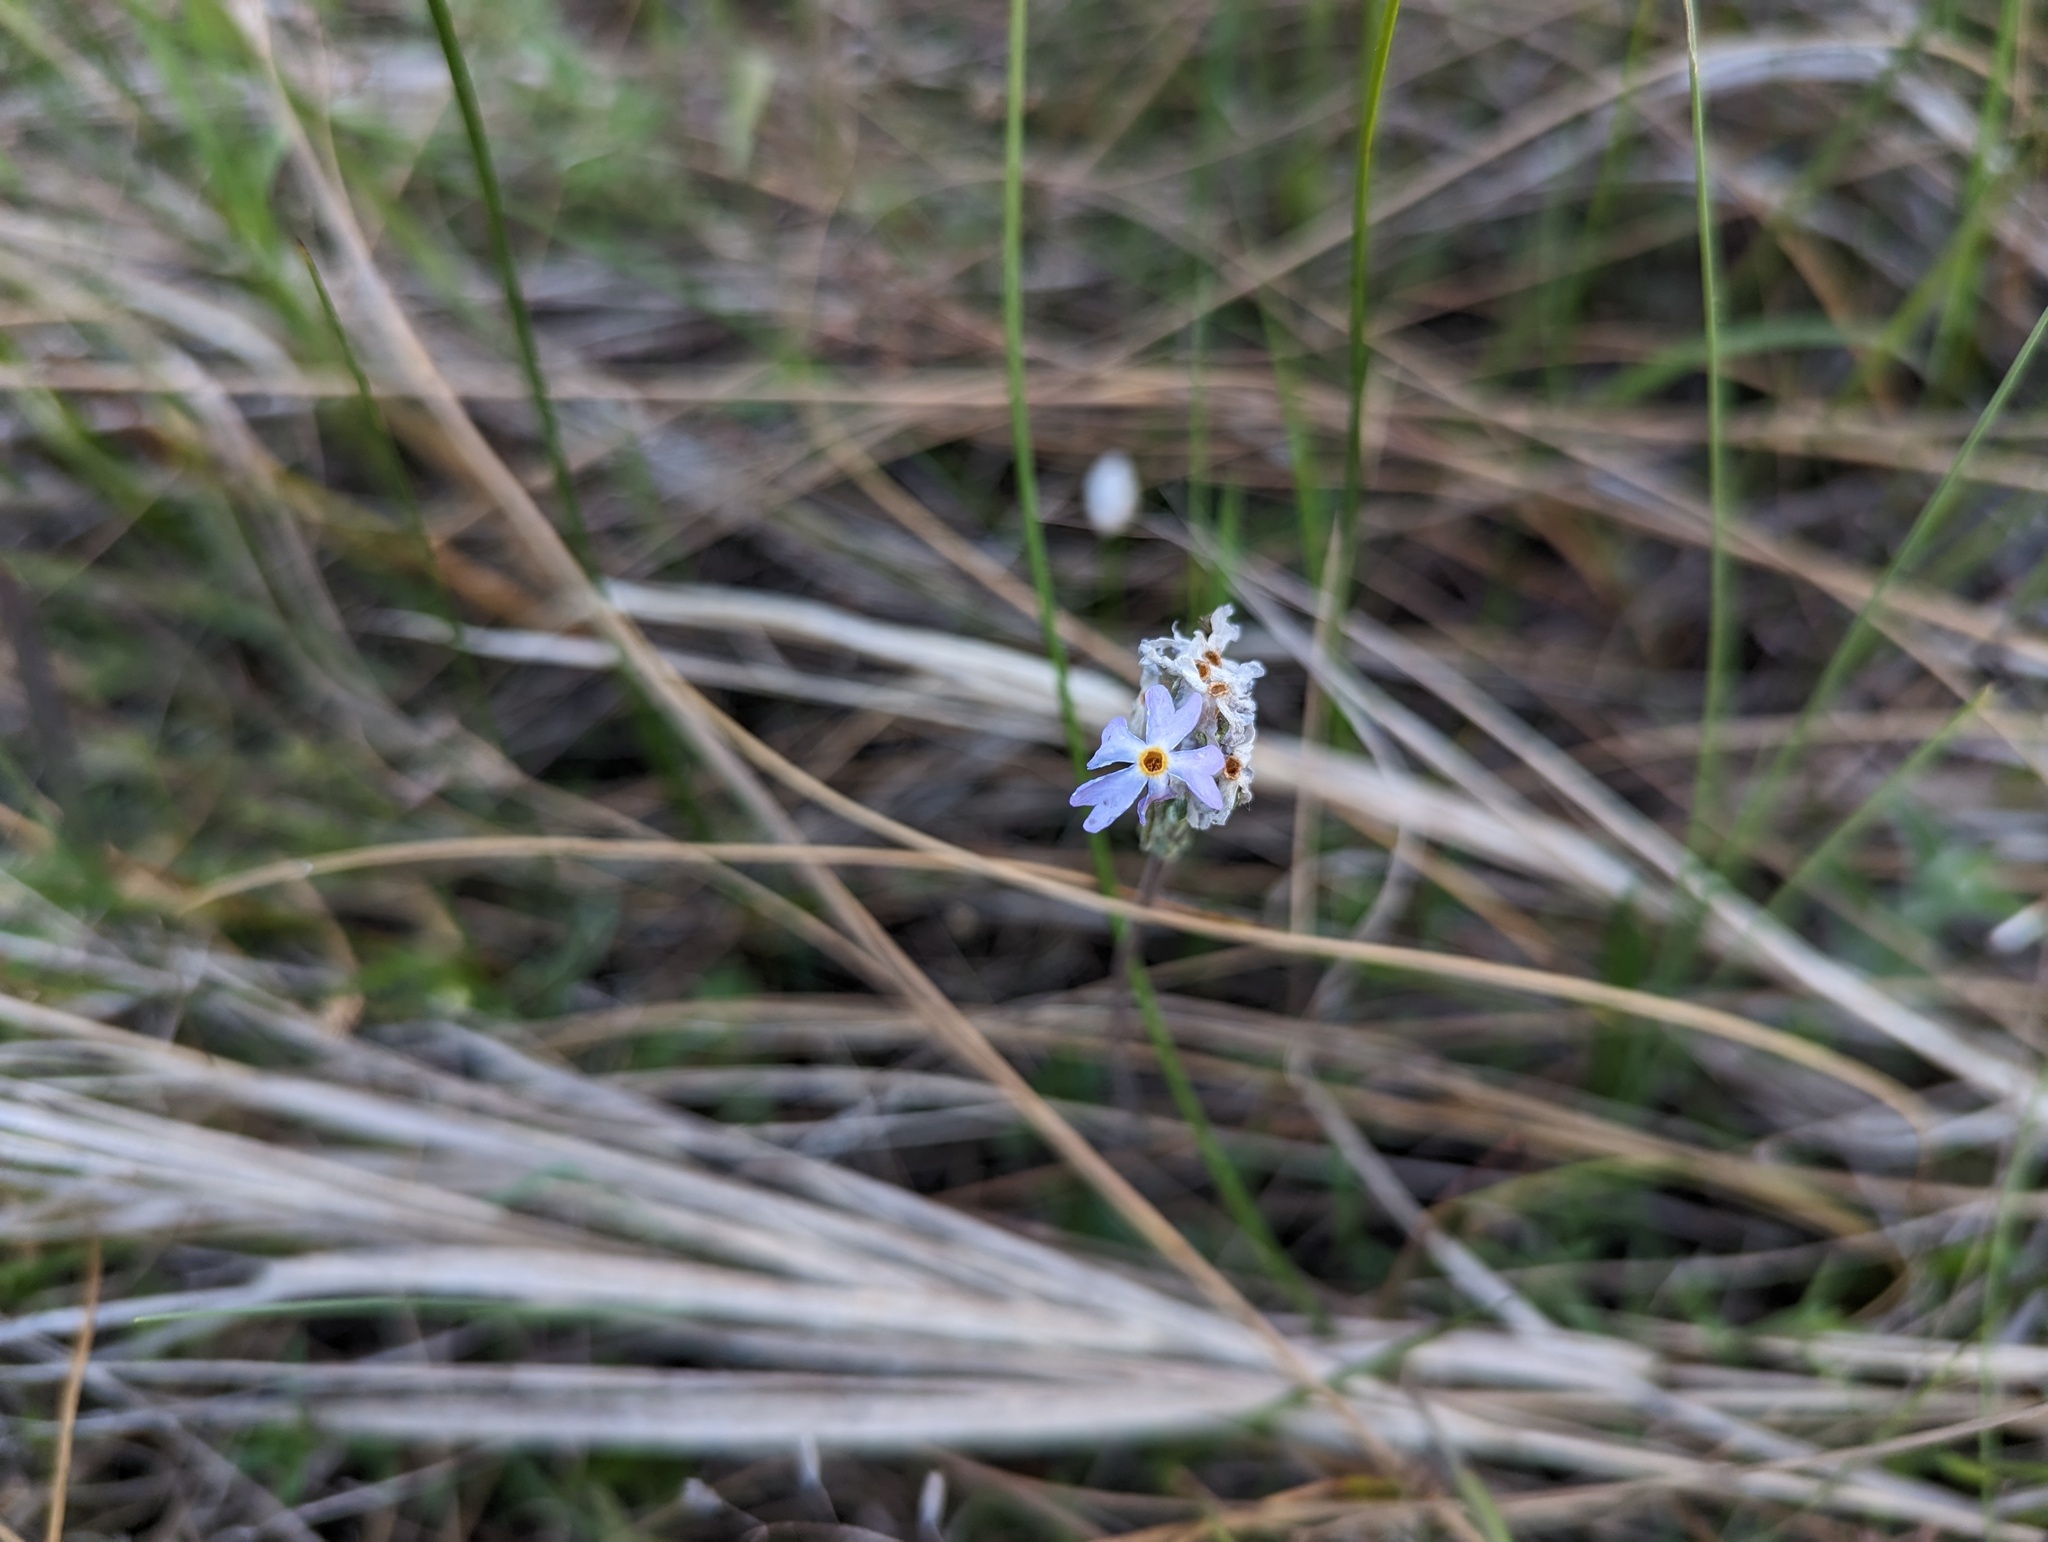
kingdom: Plantae
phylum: Tracheophyta
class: Magnoliopsida
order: Ericales
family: Primulaceae
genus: Primula
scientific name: Primula mistassinica
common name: Bird's-eye primrose
